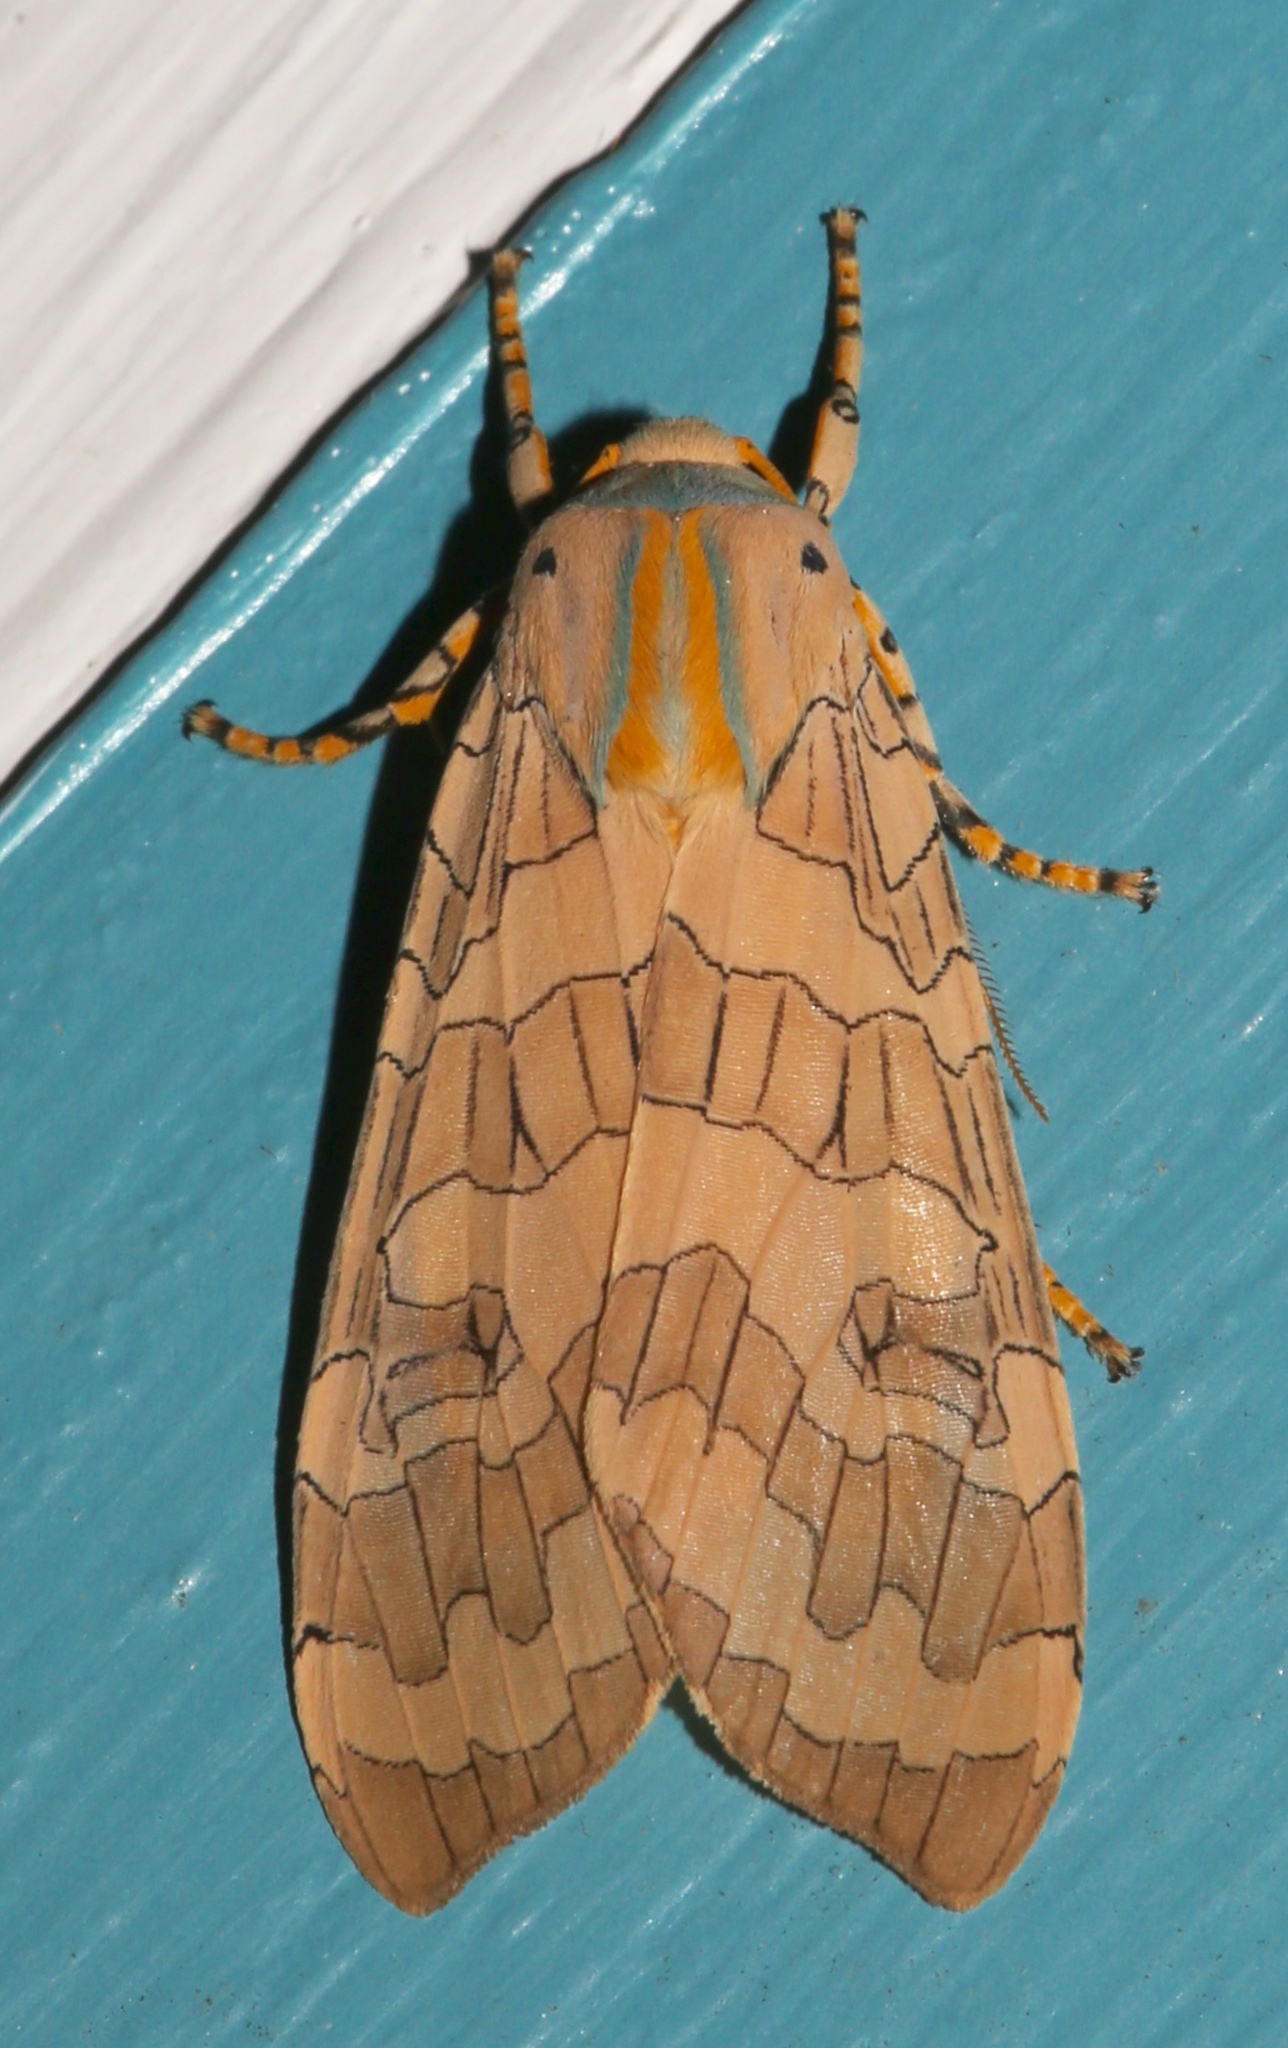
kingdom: Animalia
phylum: Arthropoda
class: Insecta
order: Lepidoptera
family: Erebidae
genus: Halysidota
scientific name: Halysidota
